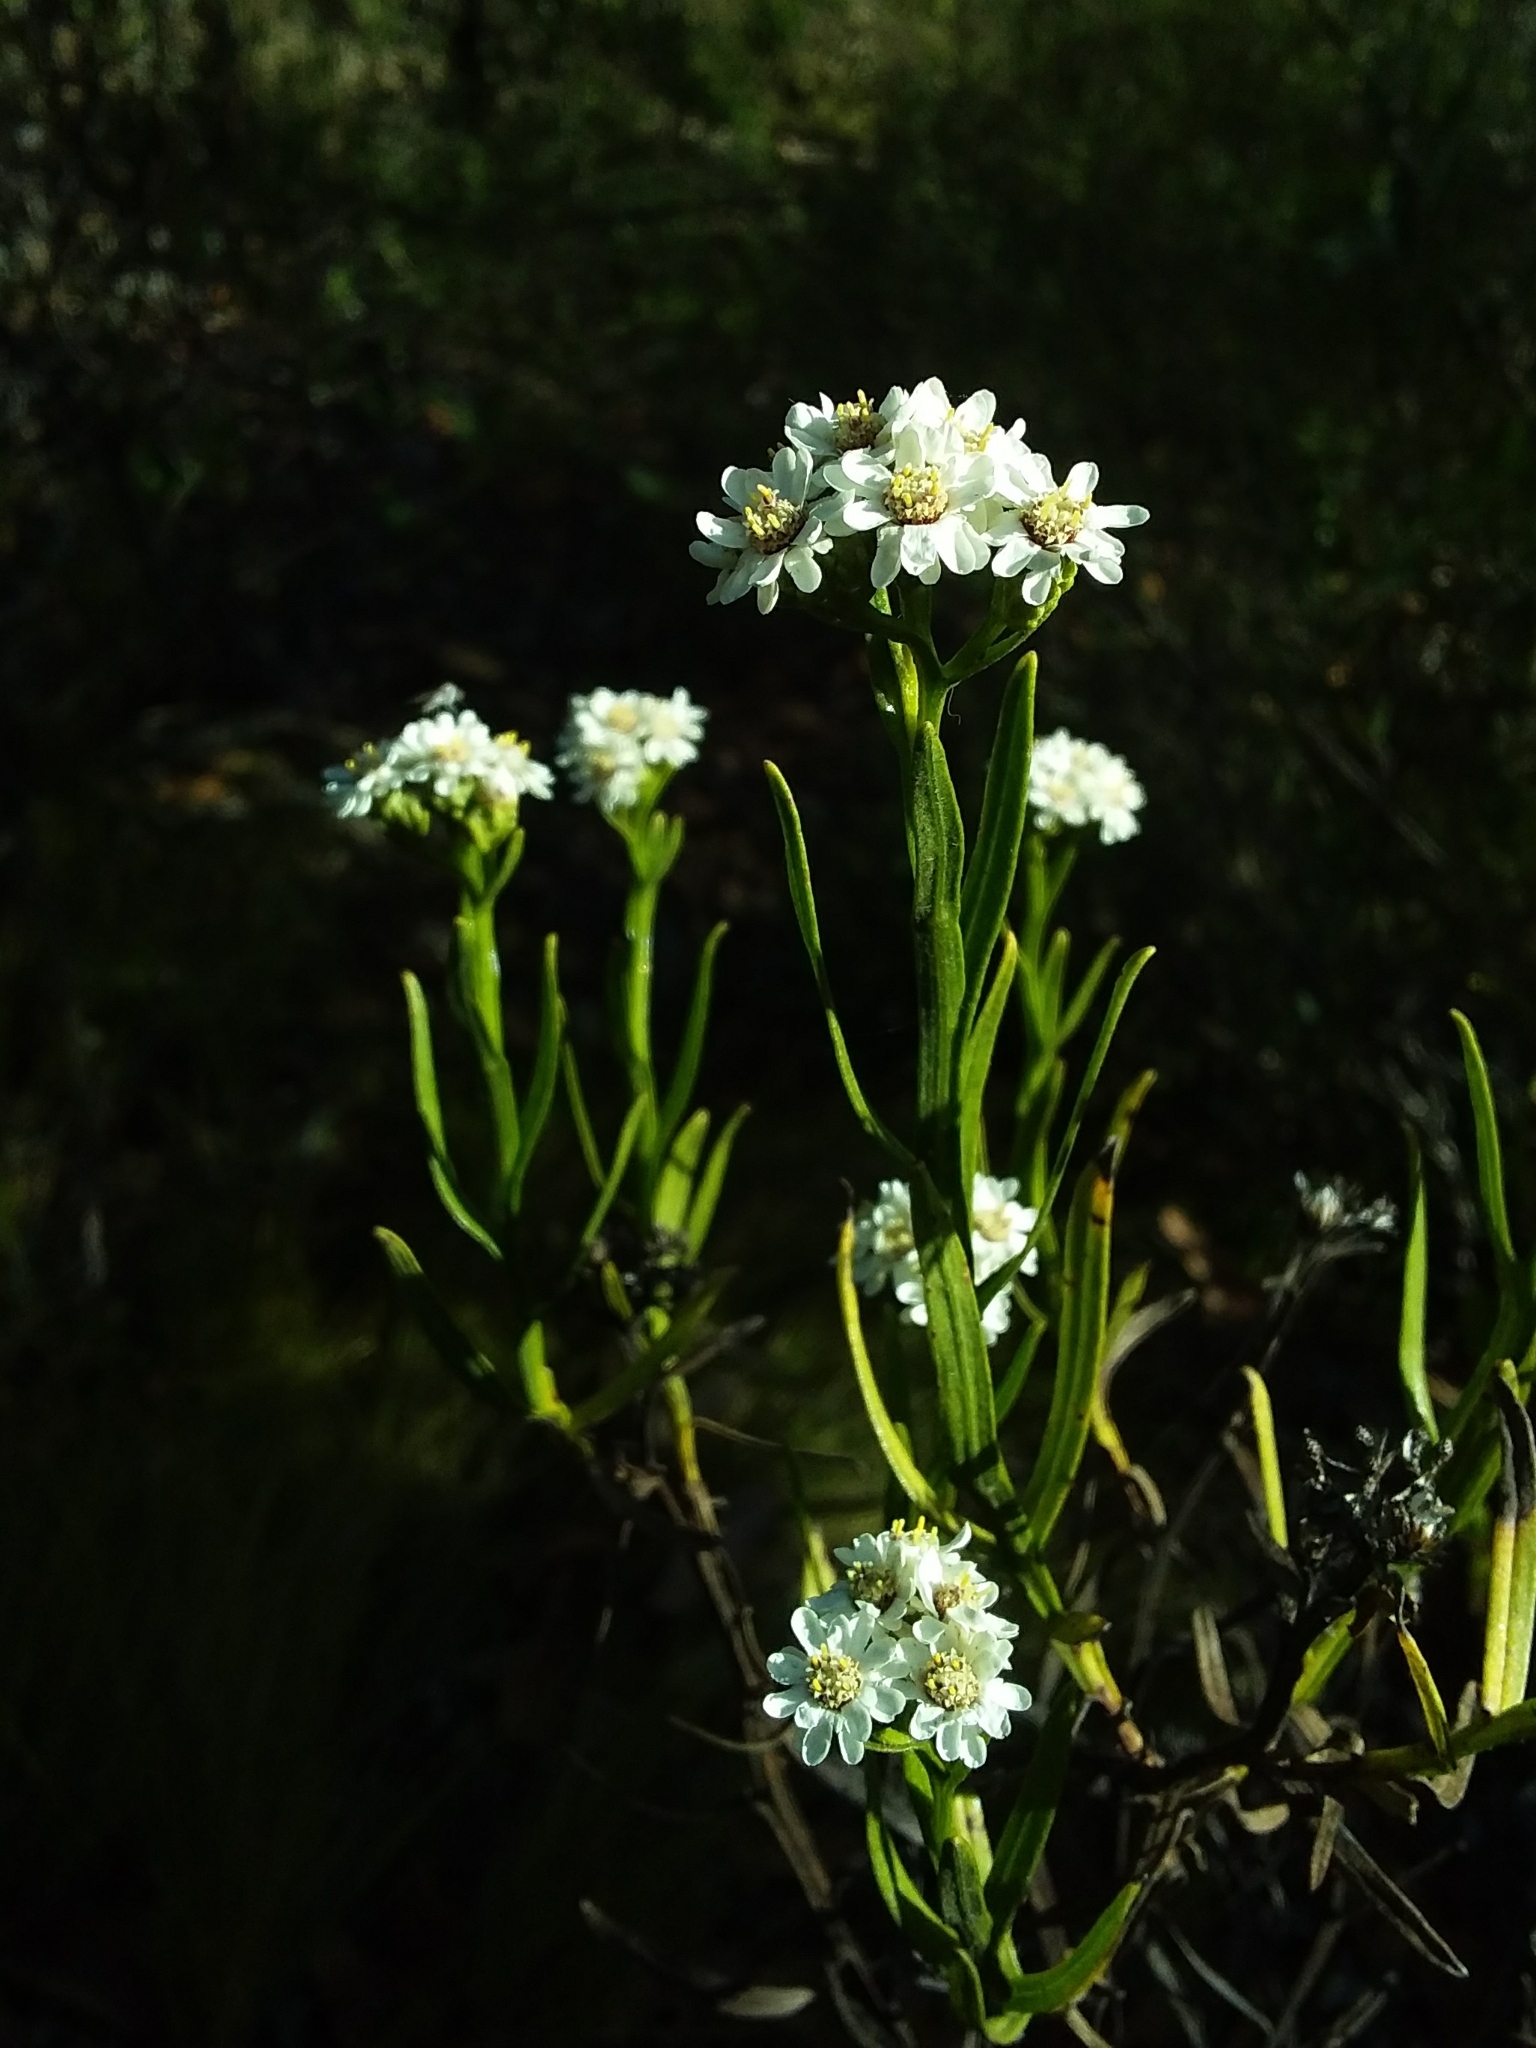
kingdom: Plantae
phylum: Tracheophyta
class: Magnoliopsida
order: Asterales
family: Asteraceae
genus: Ixodia
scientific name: Ixodia achillaeoides
